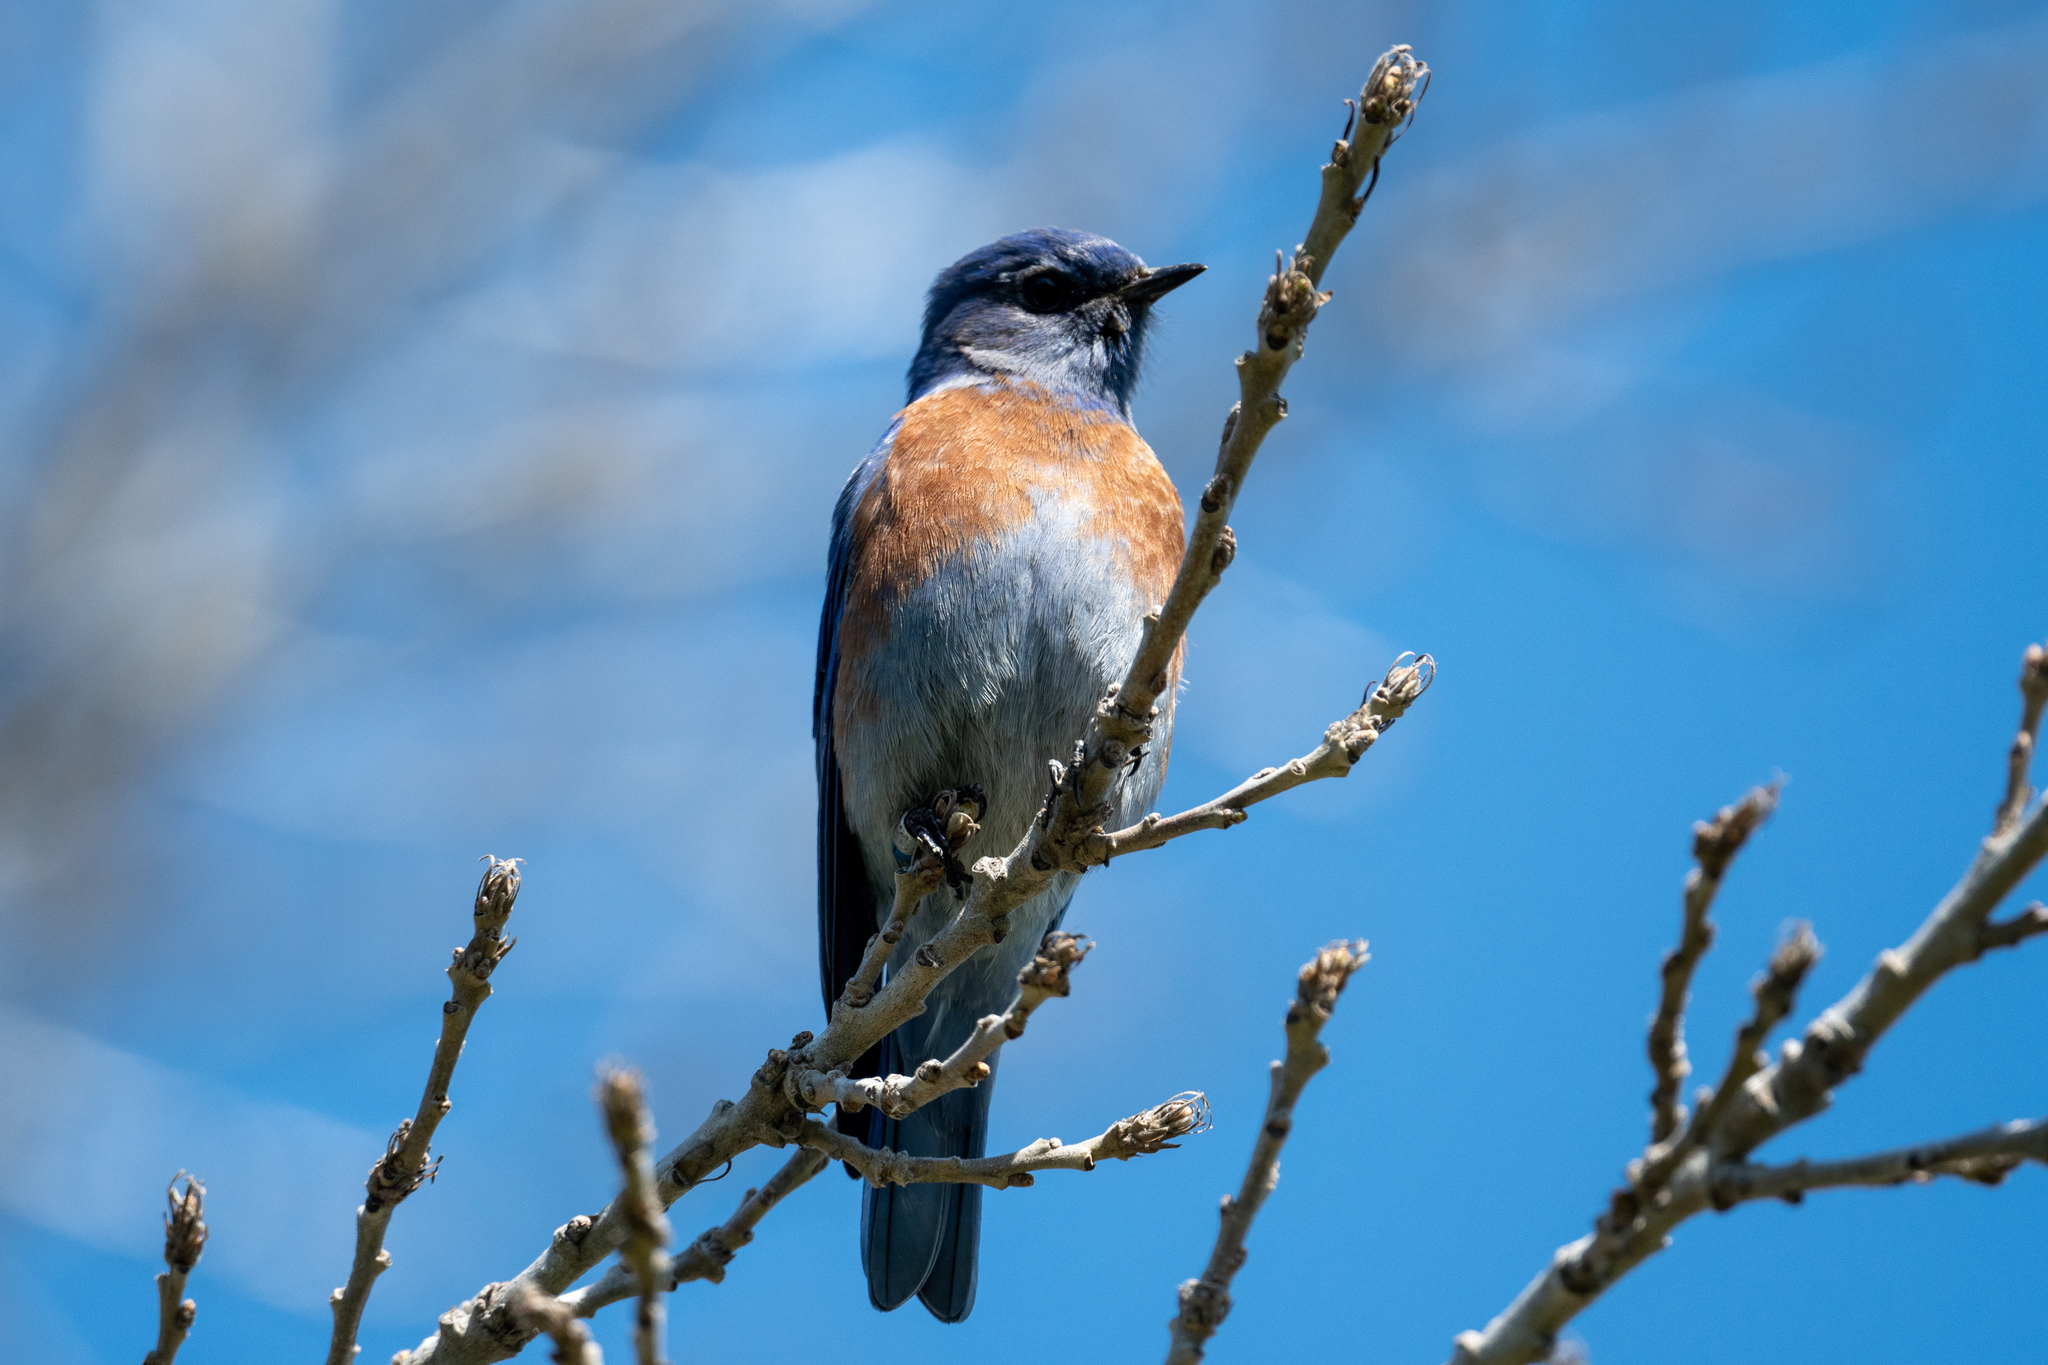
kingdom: Animalia
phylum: Chordata
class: Aves
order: Passeriformes
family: Turdidae
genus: Sialia
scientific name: Sialia mexicana
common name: Western bluebird
